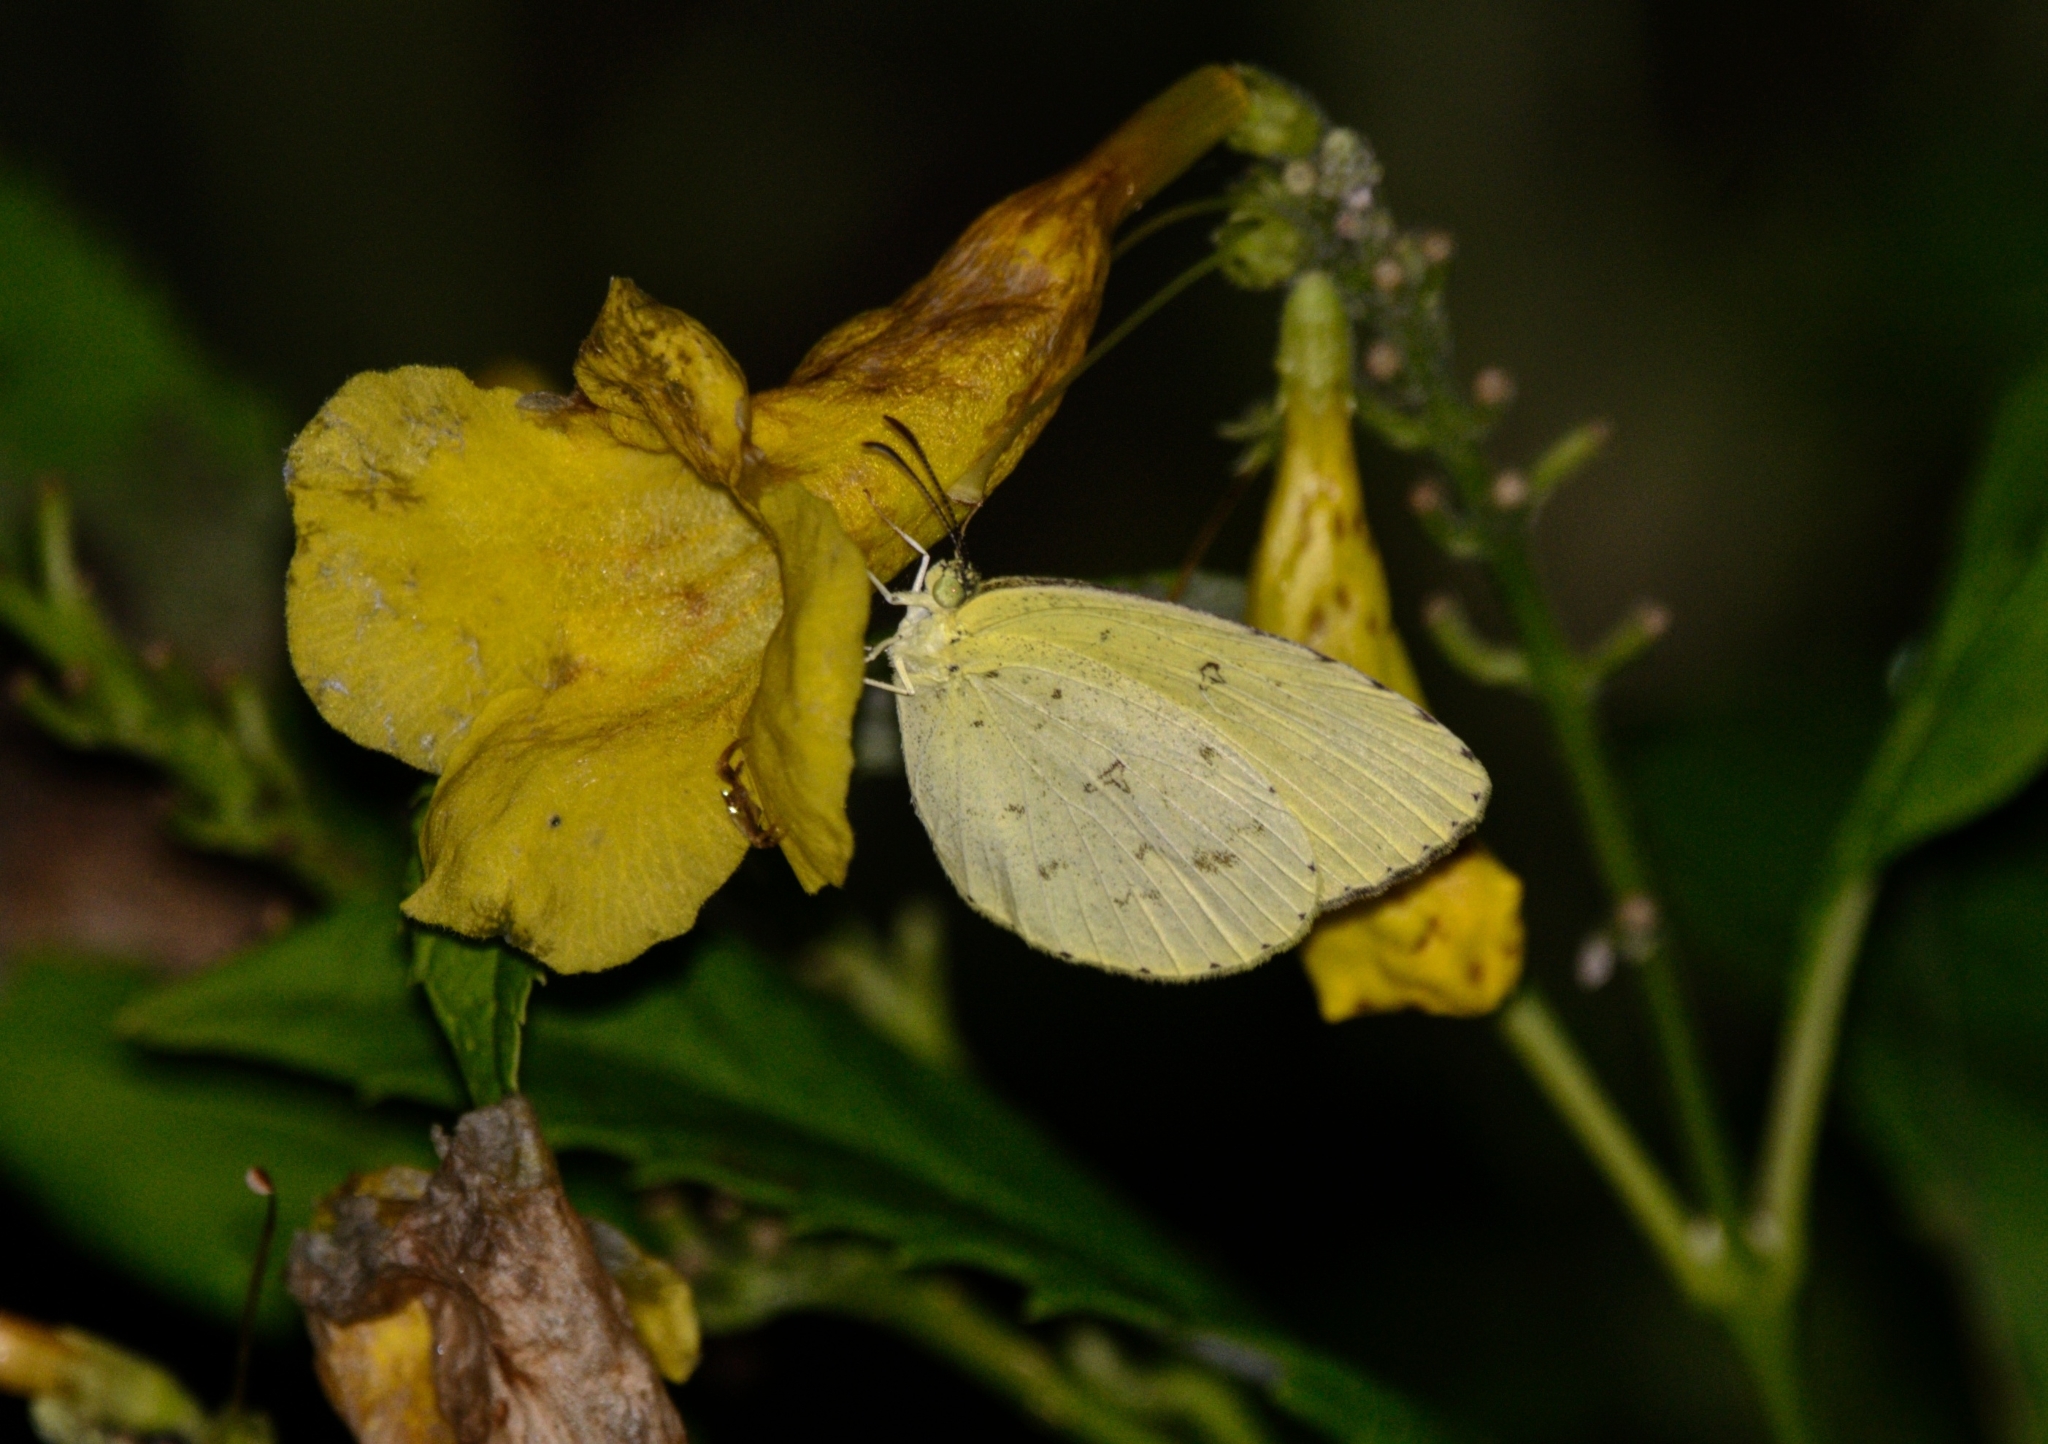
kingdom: Animalia
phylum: Arthropoda
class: Insecta
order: Lepidoptera
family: Pieridae
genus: Eurema
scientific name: Eurema hecabe
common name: Pale grass yellow
